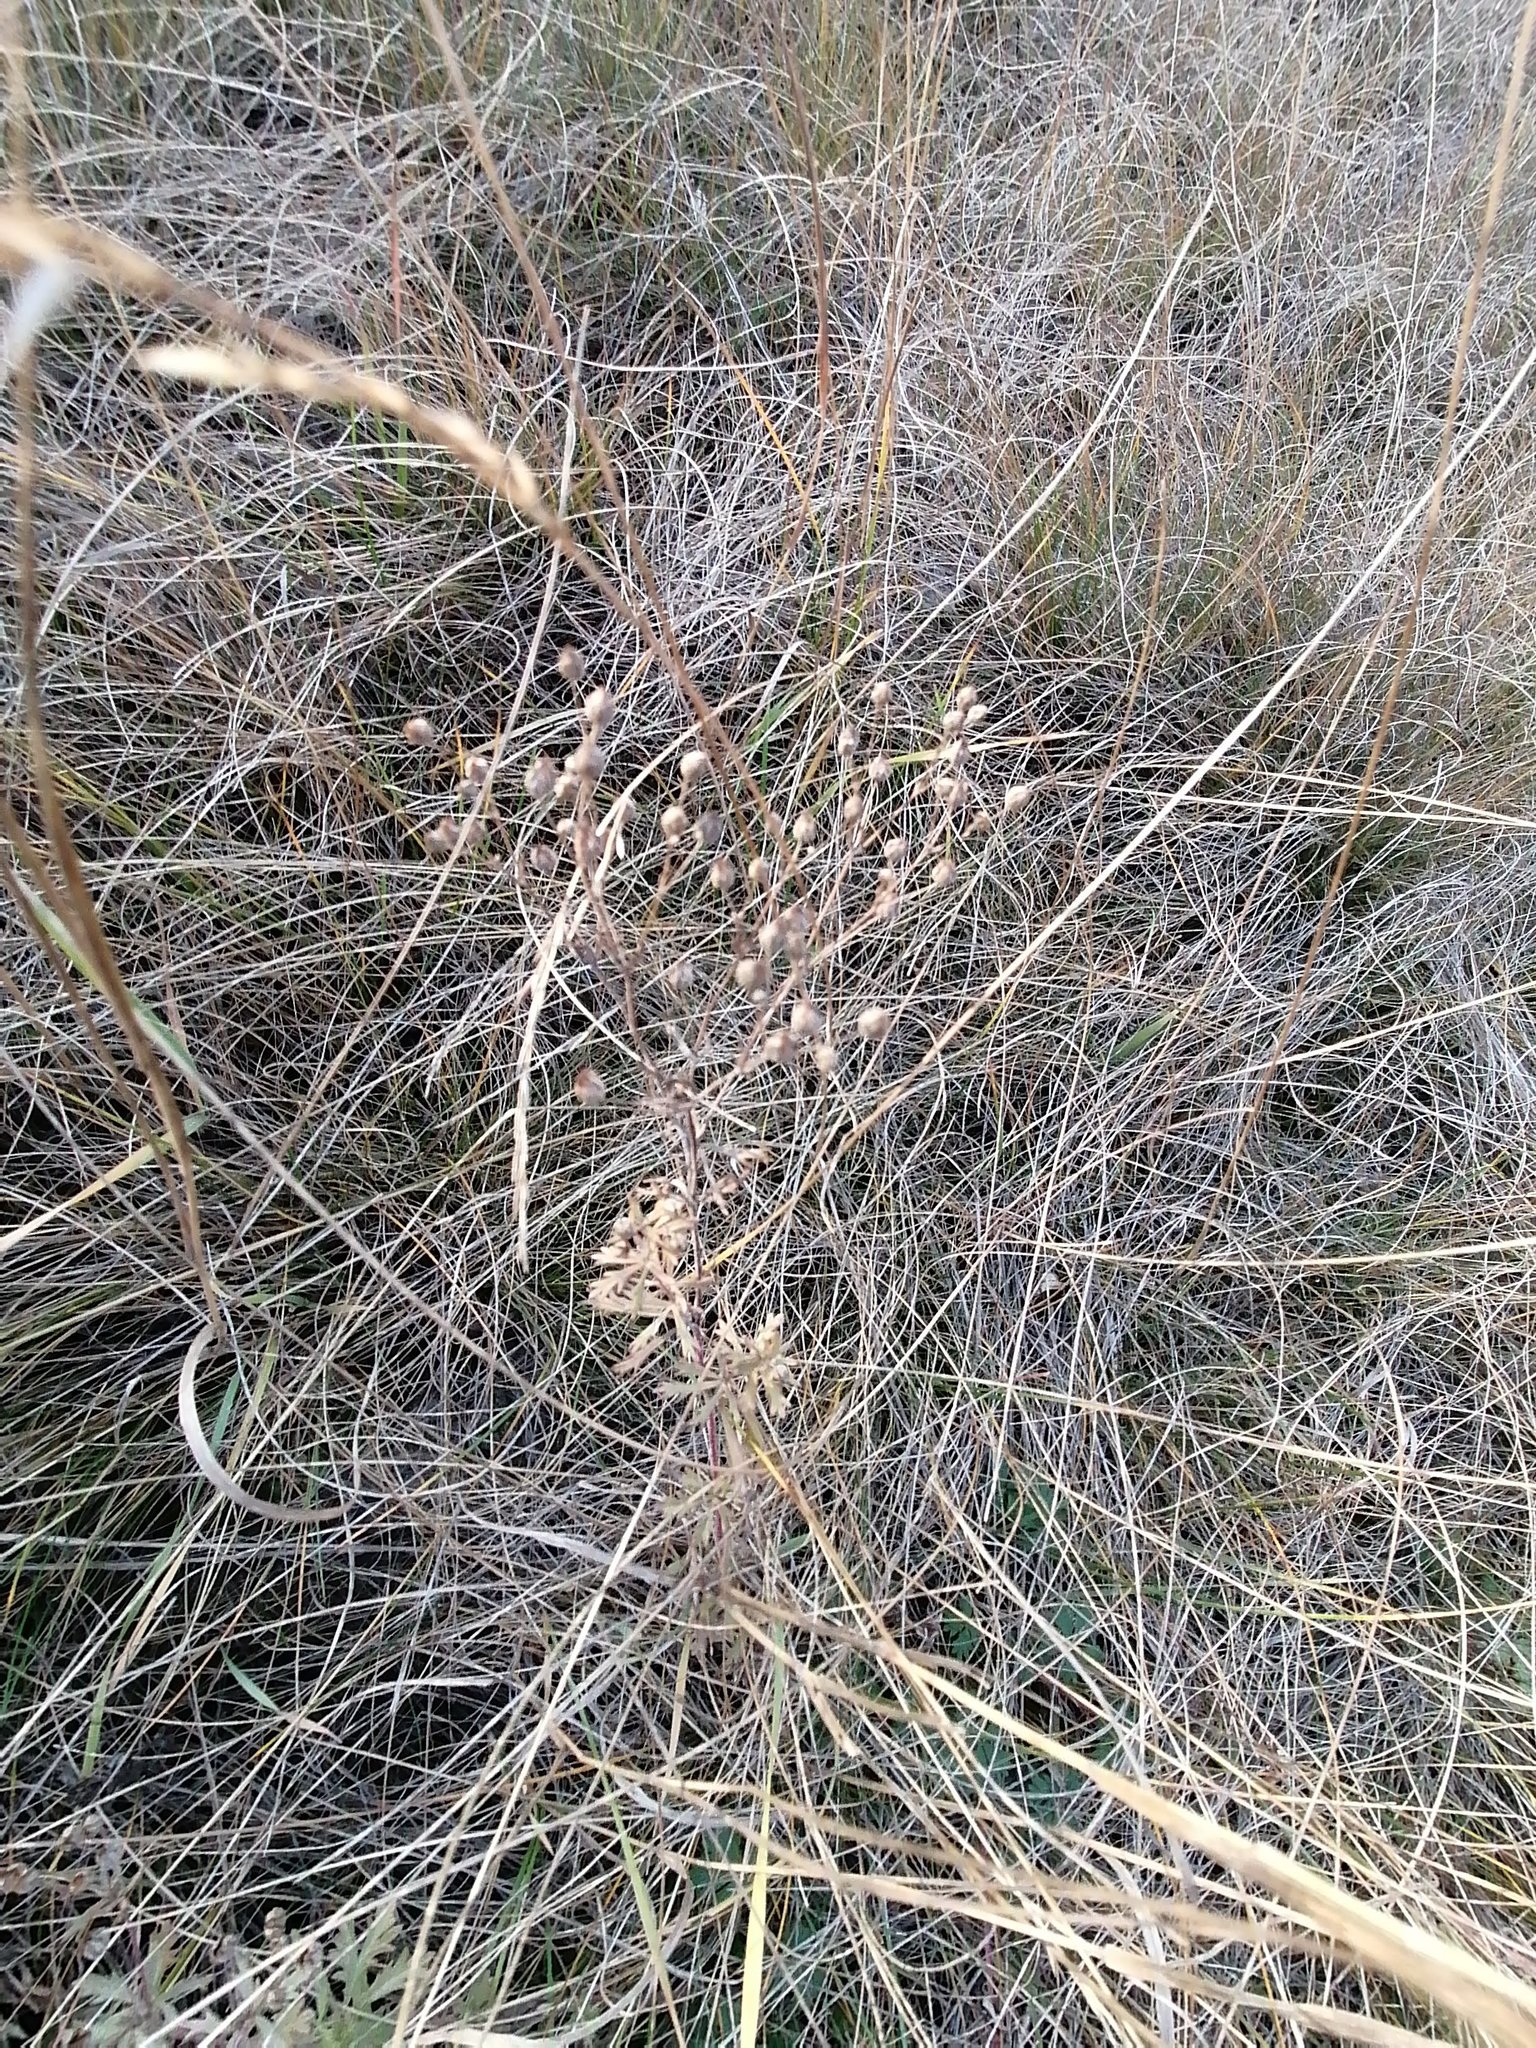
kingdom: Plantae
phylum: Tracheophyta
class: Magnoliopsida
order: Rosales
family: Rosaceae
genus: Potentilla
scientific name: Potentilla argentea
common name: Hoary cinquefoil
